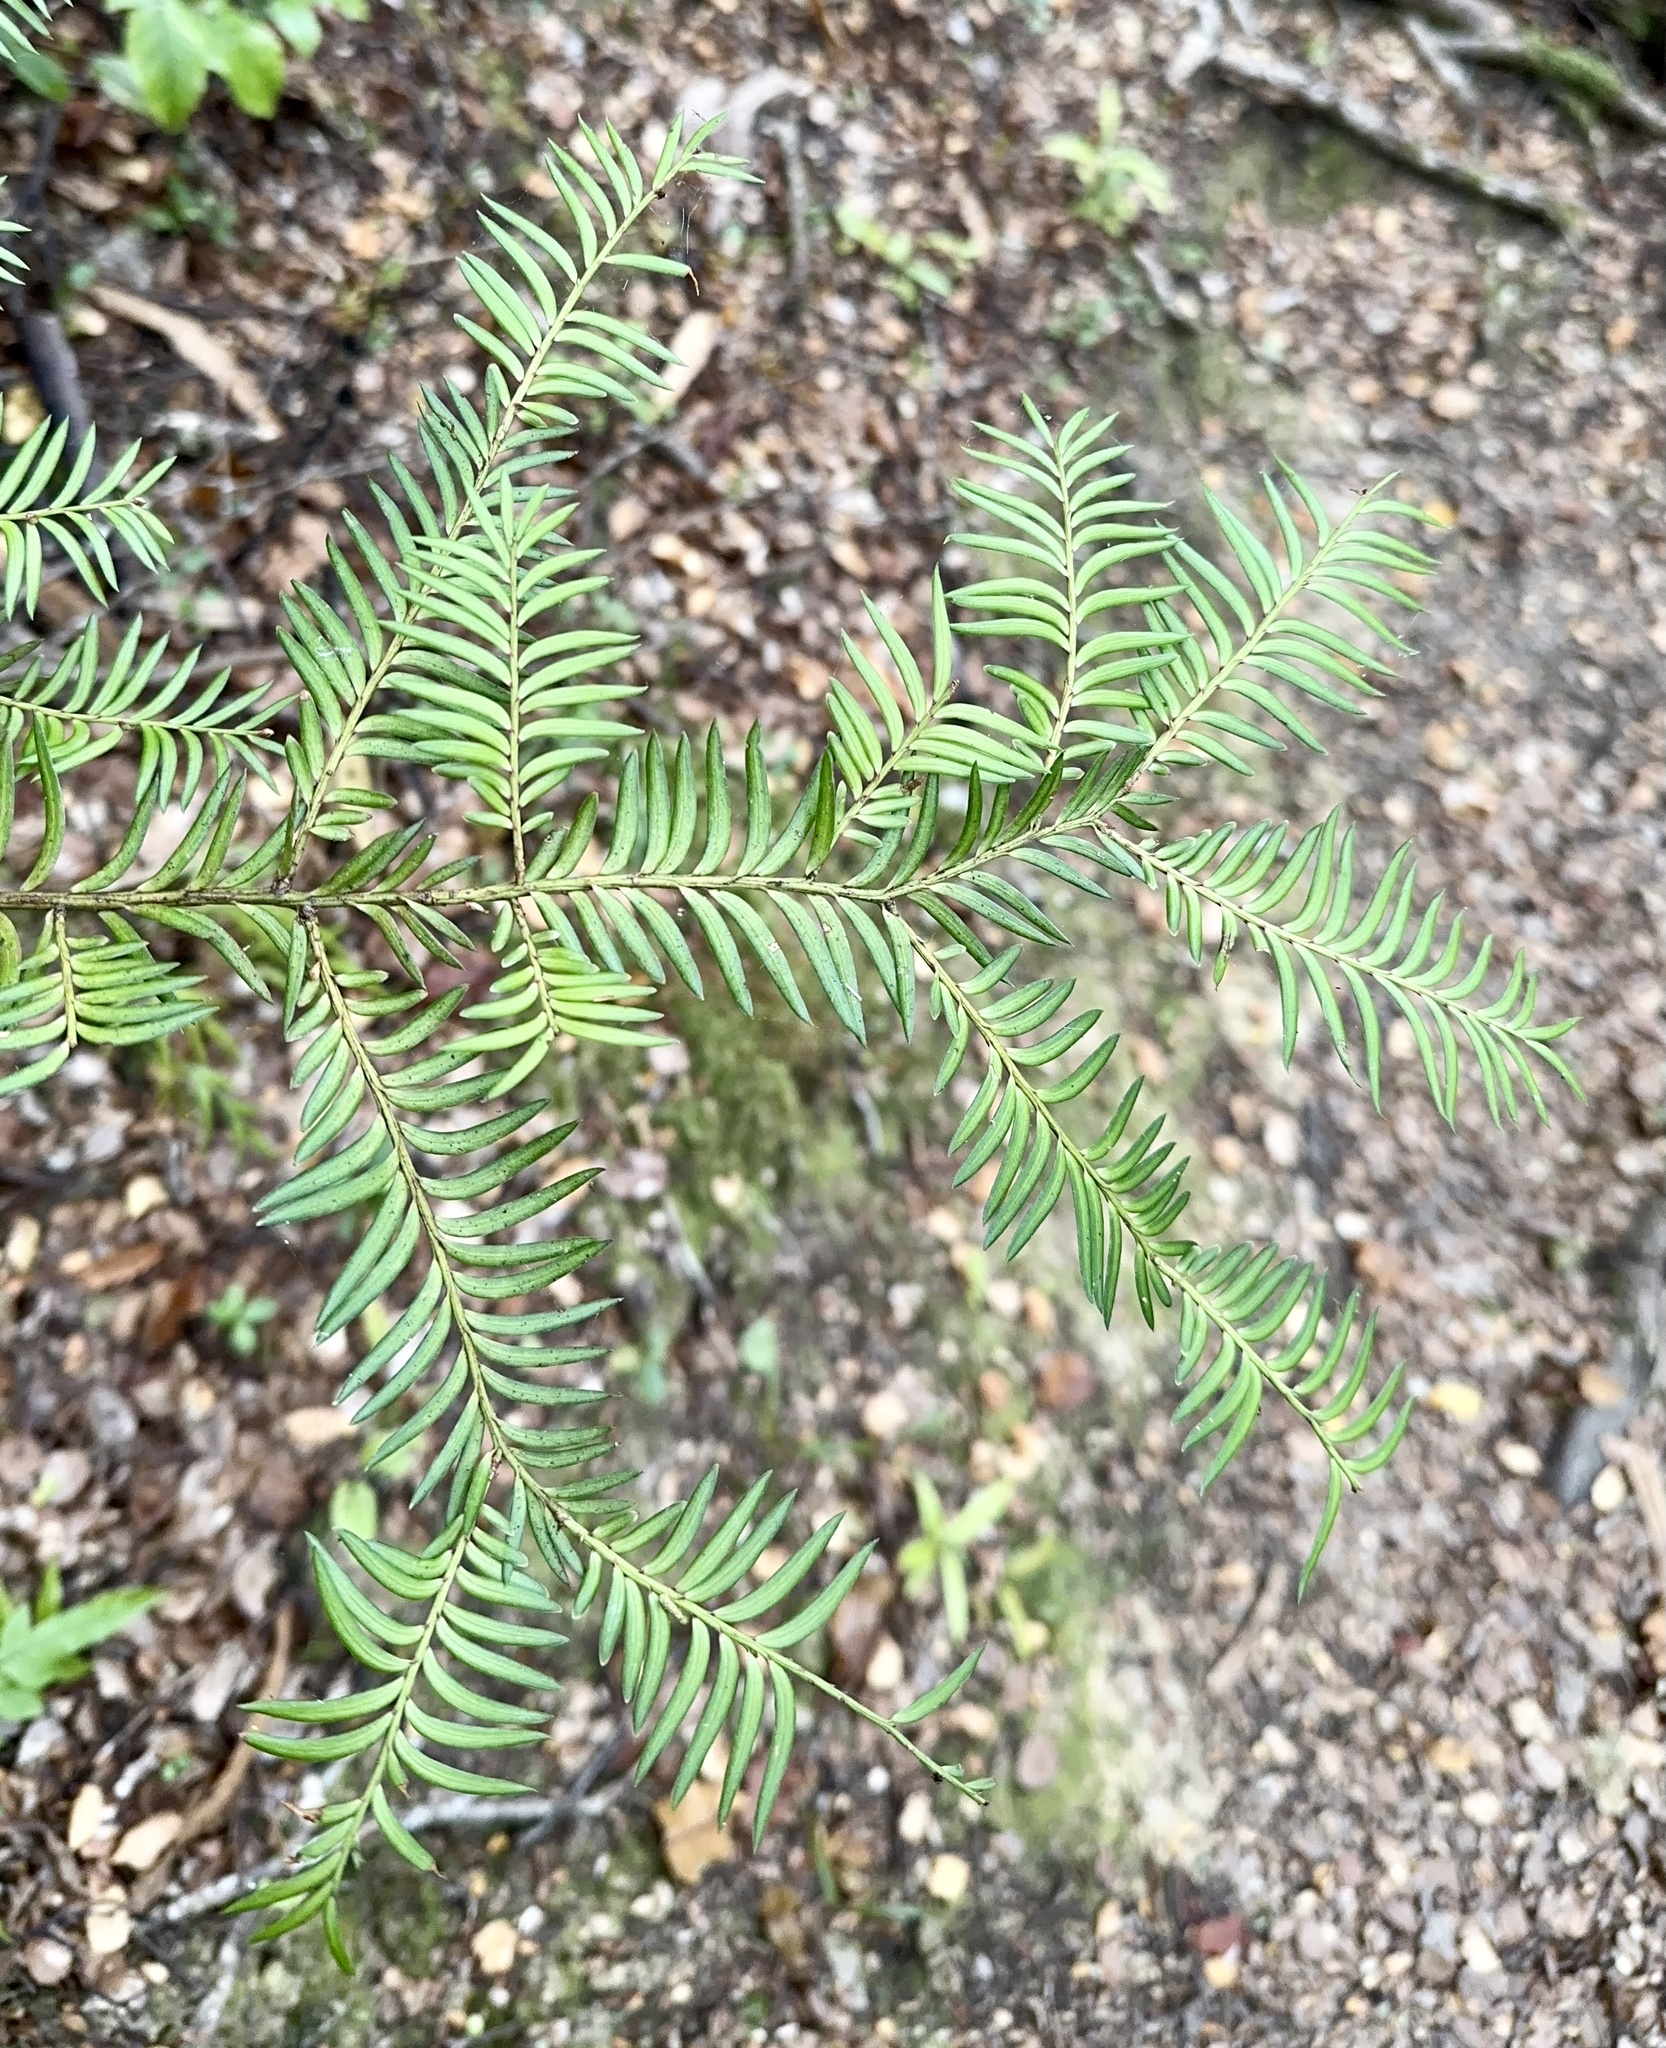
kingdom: Plantae
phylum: Tracheophyta
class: Pinopsida
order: Pinales
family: Podocarpaceae
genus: Prumnopitys
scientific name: Prumnopitys ferruginea
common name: Brown pine
